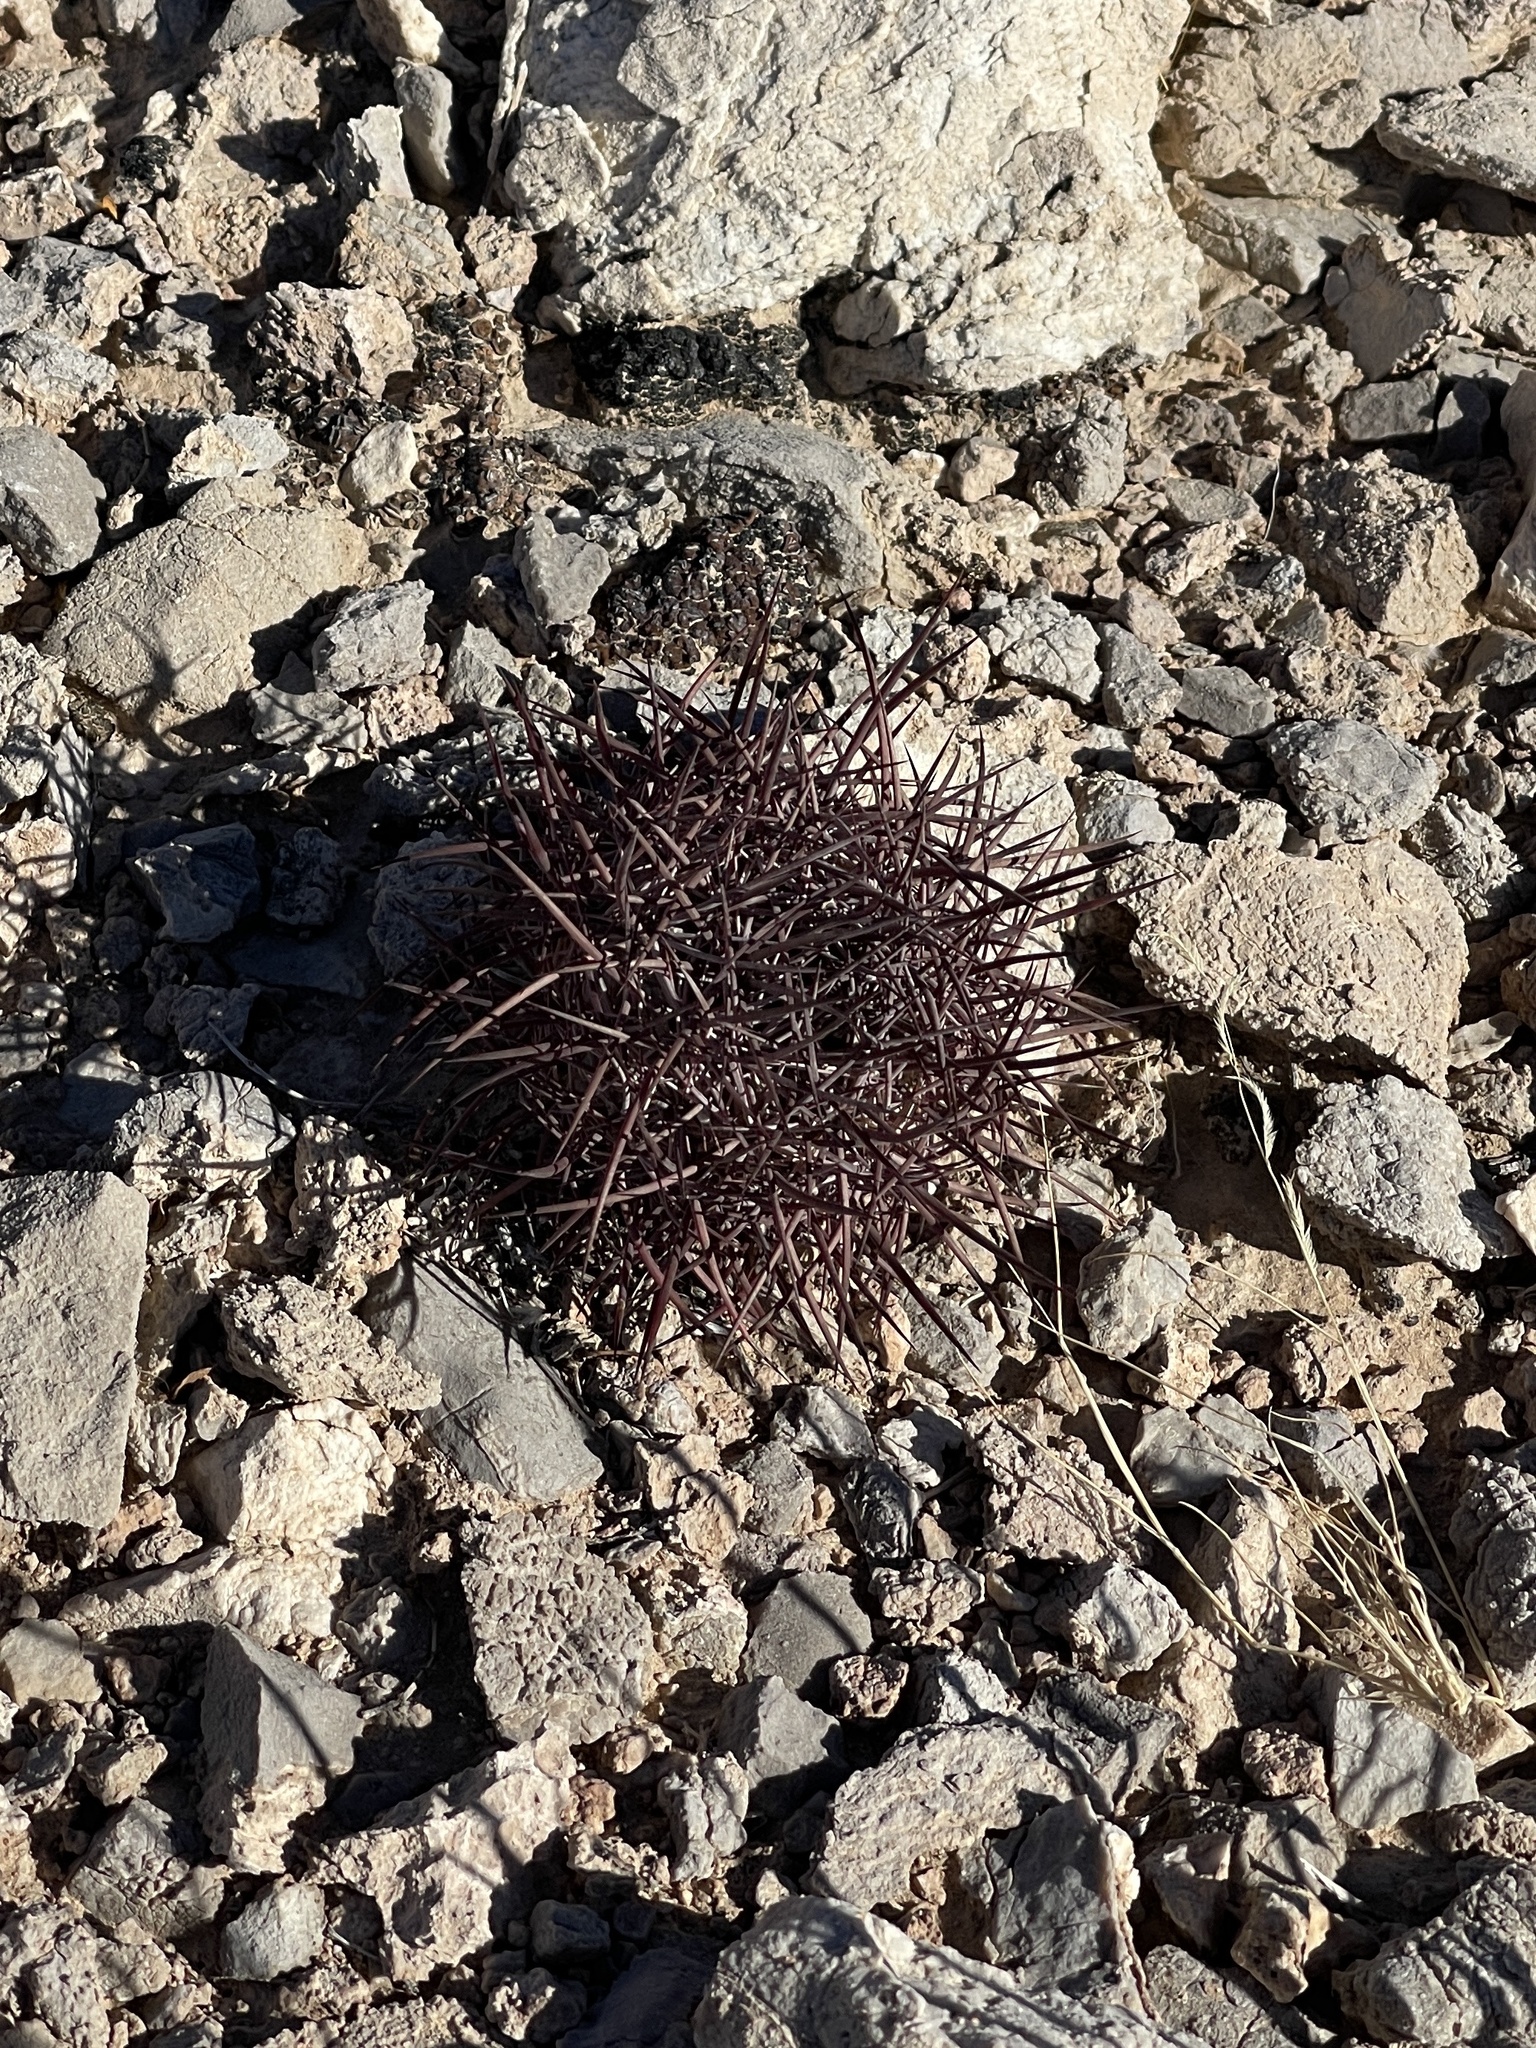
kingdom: Plantae
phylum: Tracheophyta
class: Magnoliopsida
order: Caryophyllales
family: Cactaceae
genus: Sclerocactus
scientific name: Sclerocactus johnsonii
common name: Eight-spine fishhook cactus
